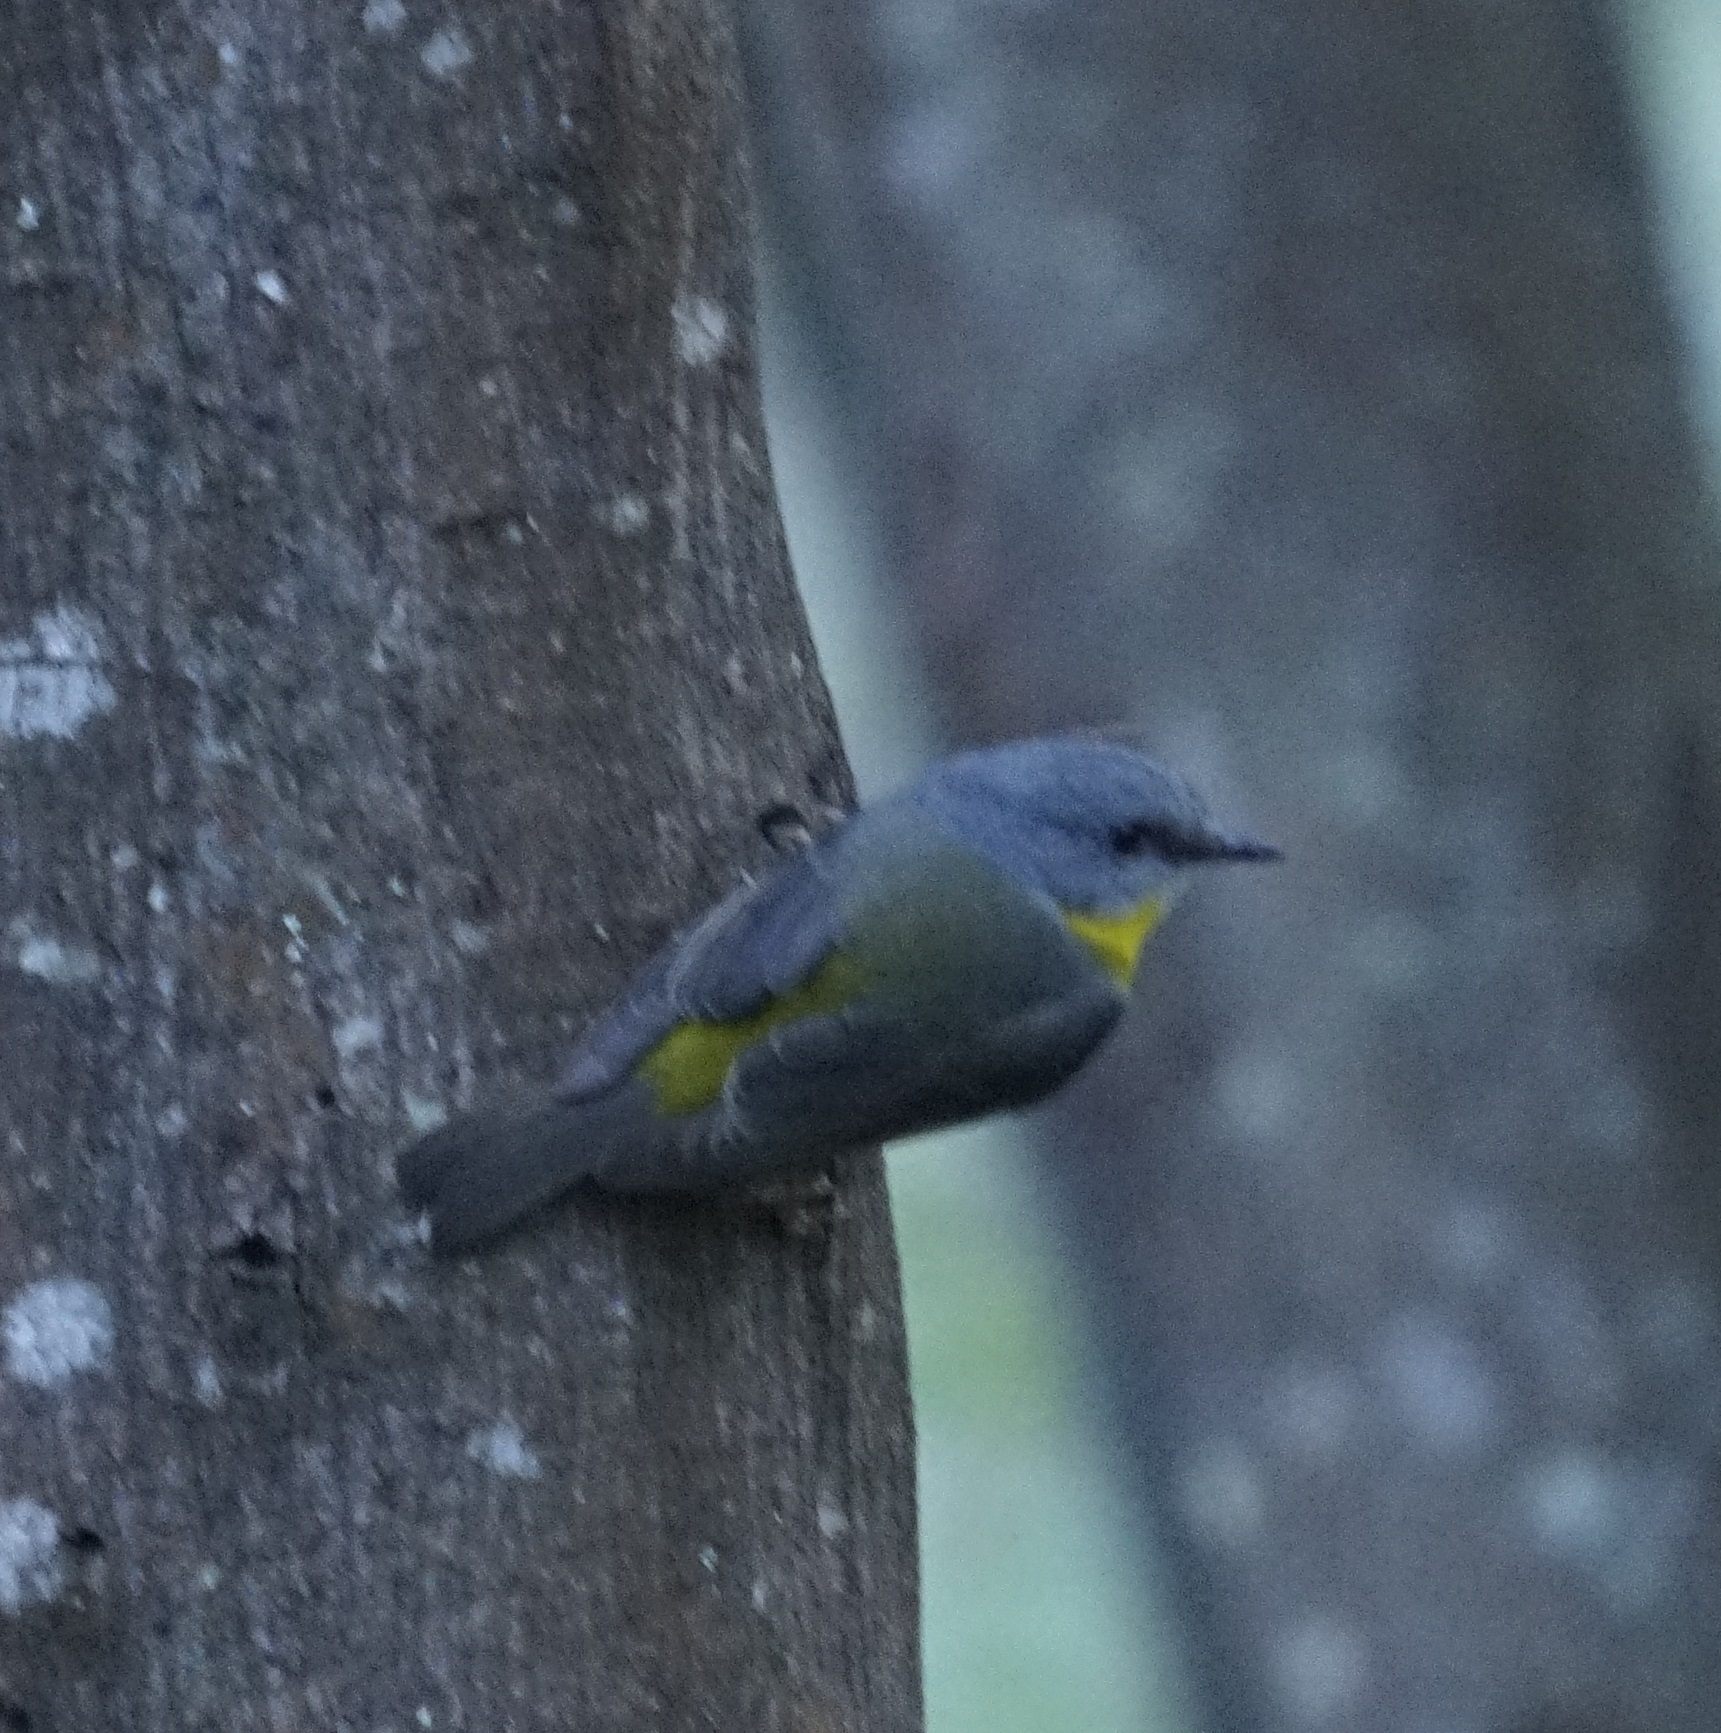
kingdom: Animalia
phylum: Chordata
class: Aves
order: Passeriformes
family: Petroicidae
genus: Eopsaltria
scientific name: Eopsaltria australis
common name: Eastern yellow robin
